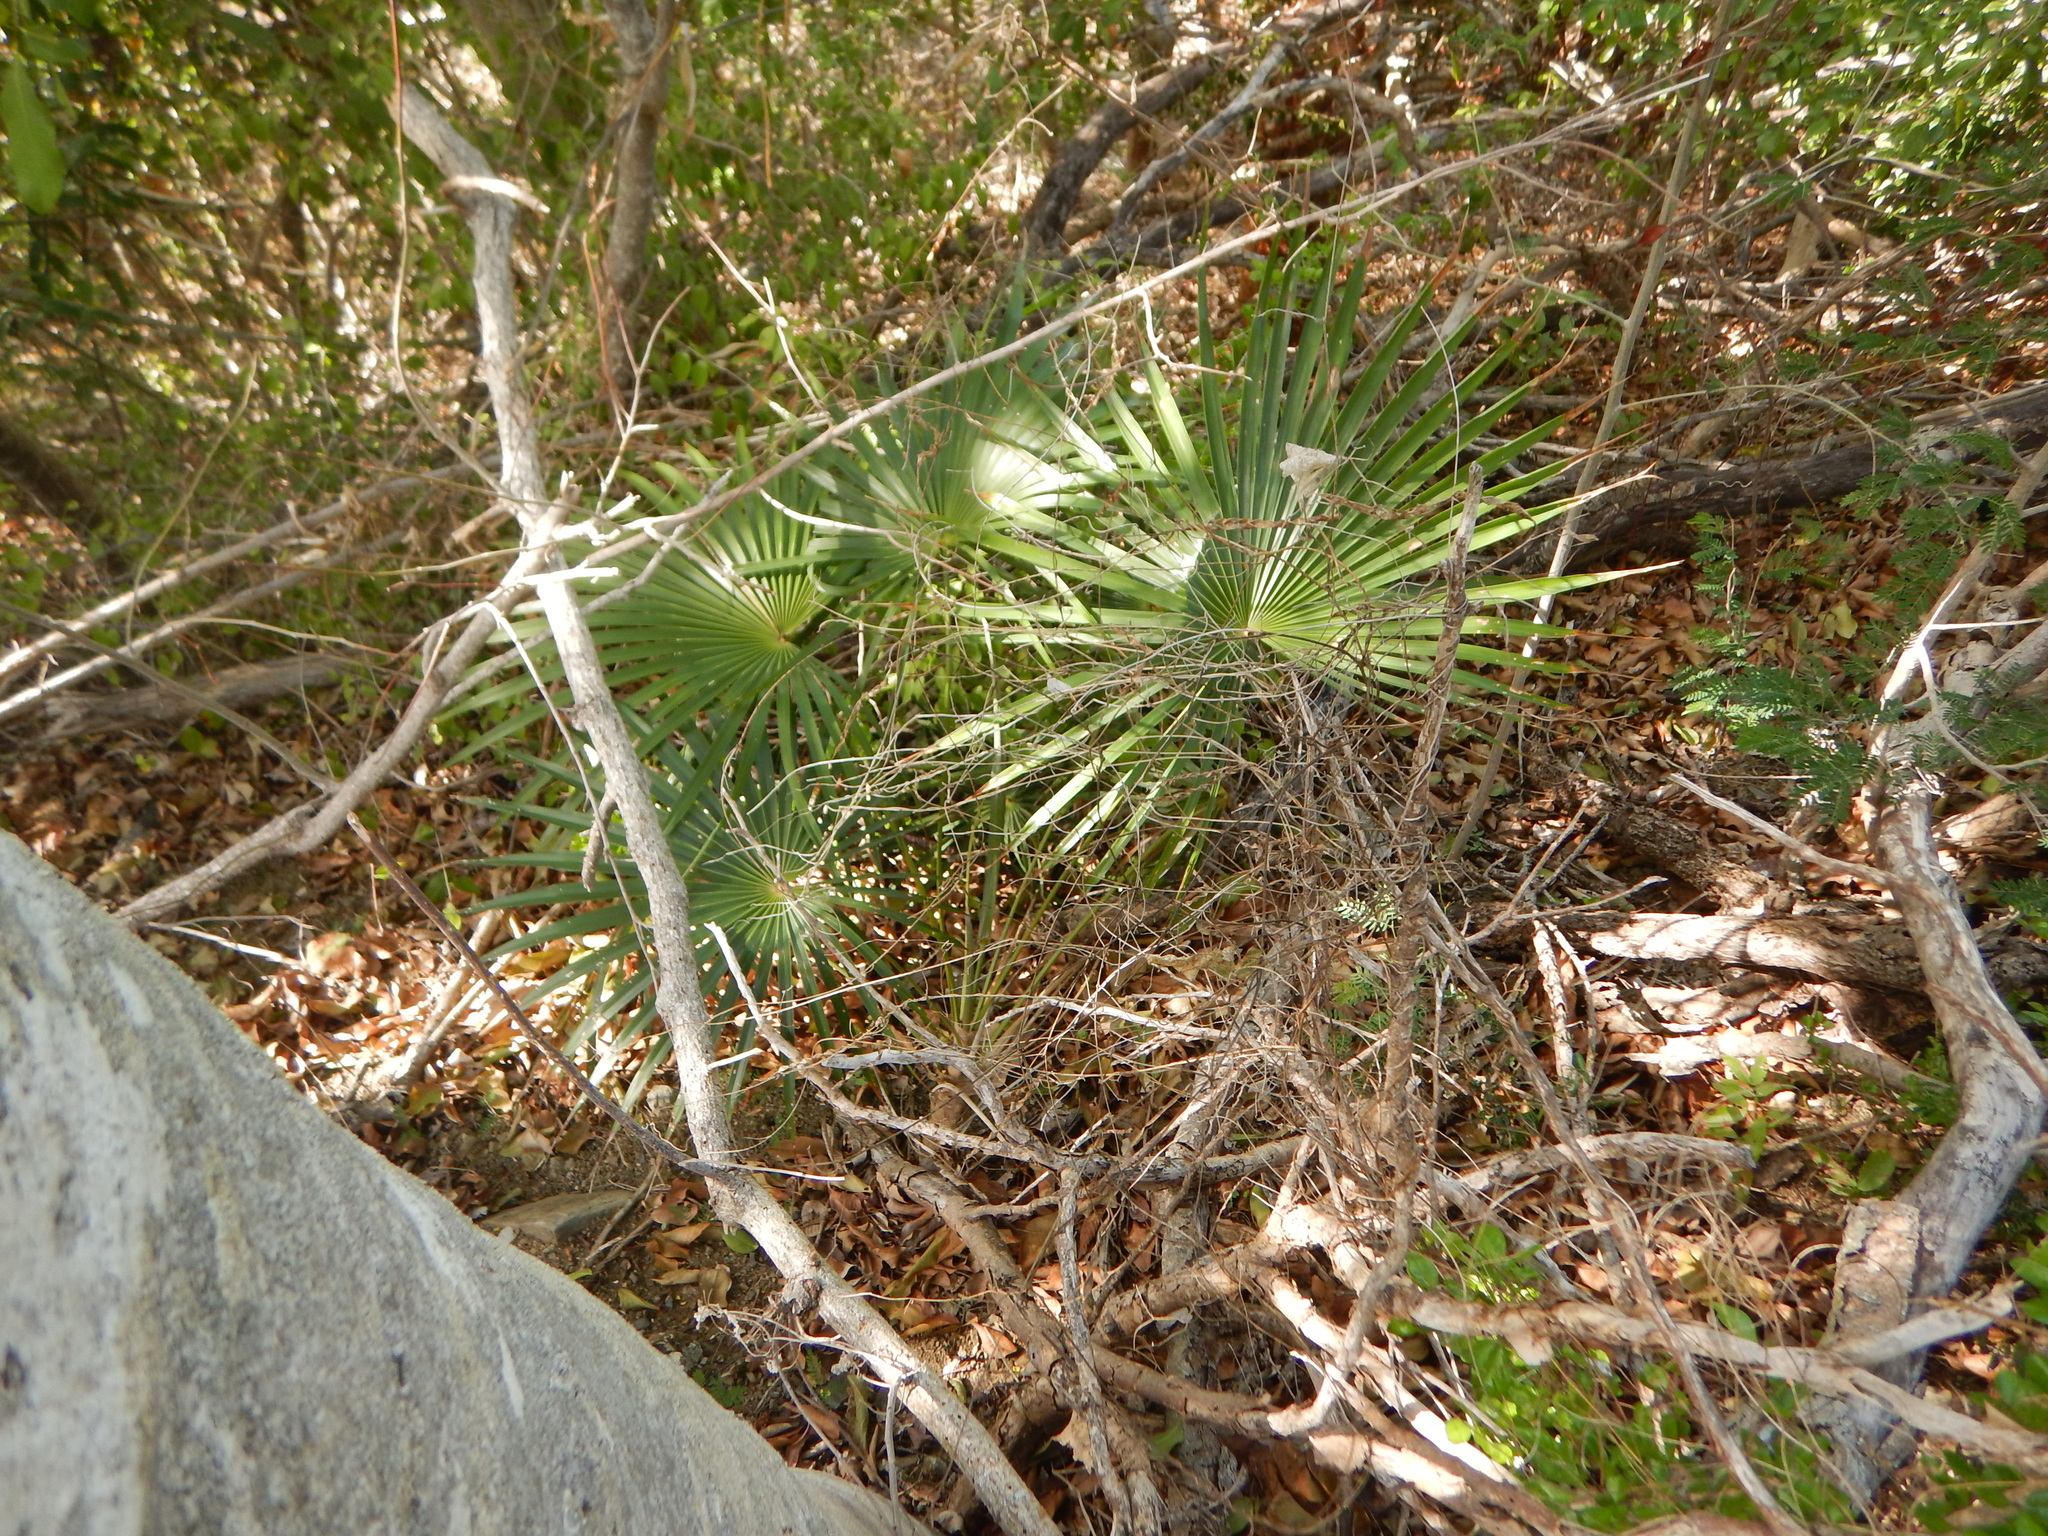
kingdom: Plantae
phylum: Tracheophyta
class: Liliopsida
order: Arecales
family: Arecaceae
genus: Coccothrinax
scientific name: Coccothrinax alta
